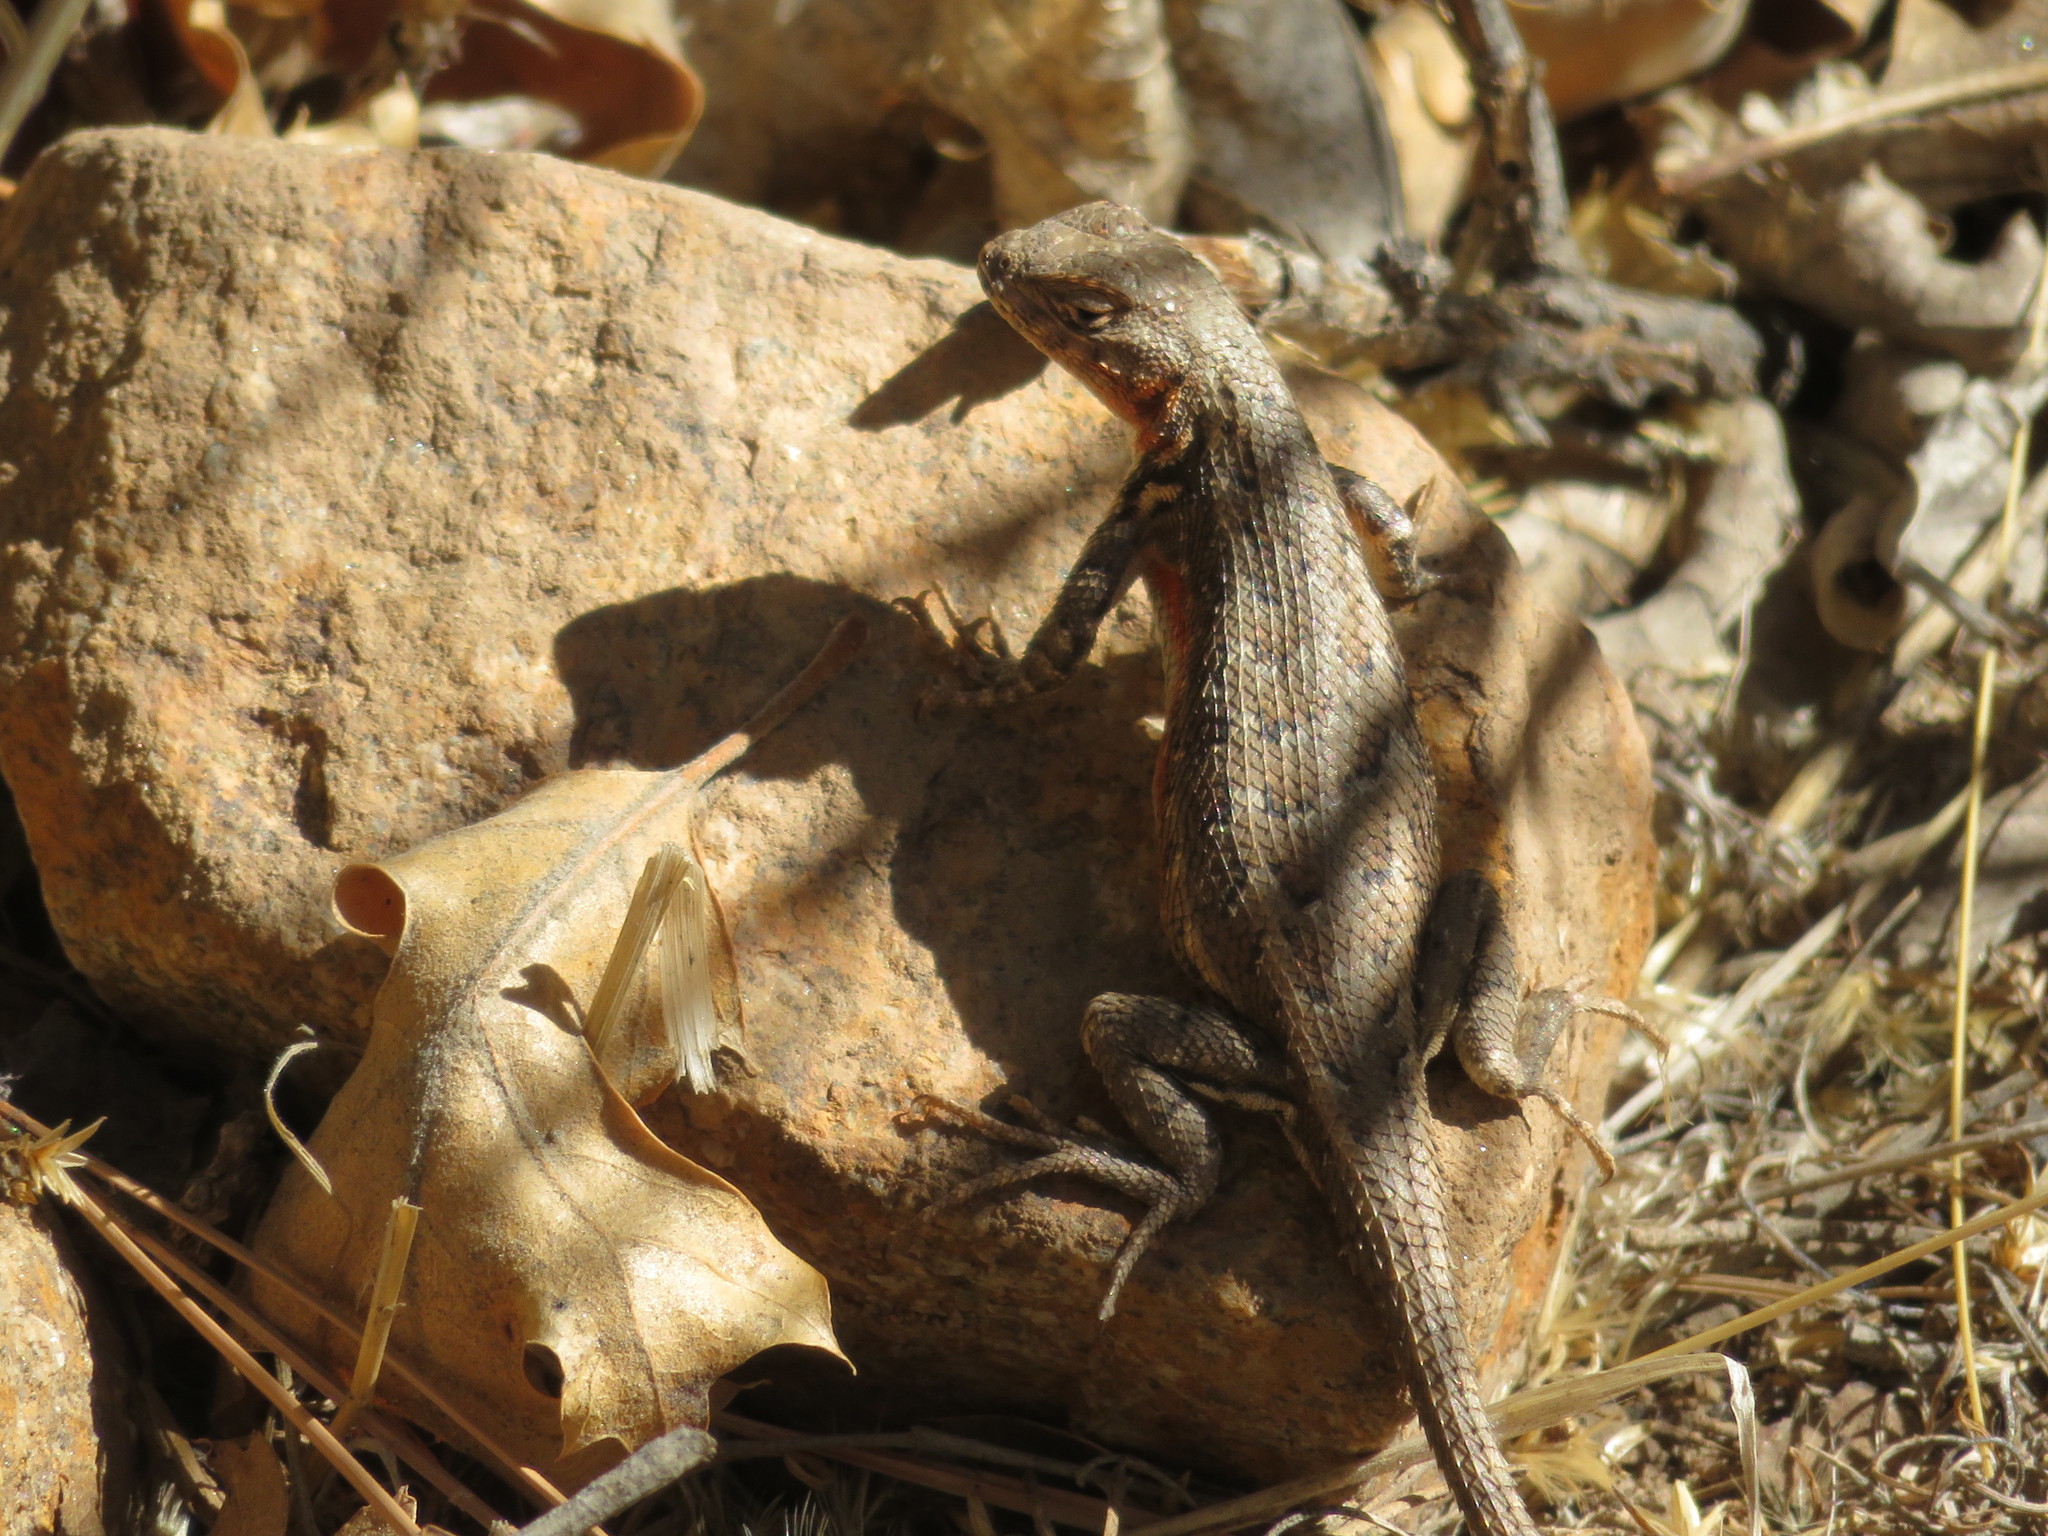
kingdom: Animalia
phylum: Chordata
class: Squamata
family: Phrynosomatidae
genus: Sceloporus
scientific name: Sceloporus graciosus
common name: Sagebrush lizard
